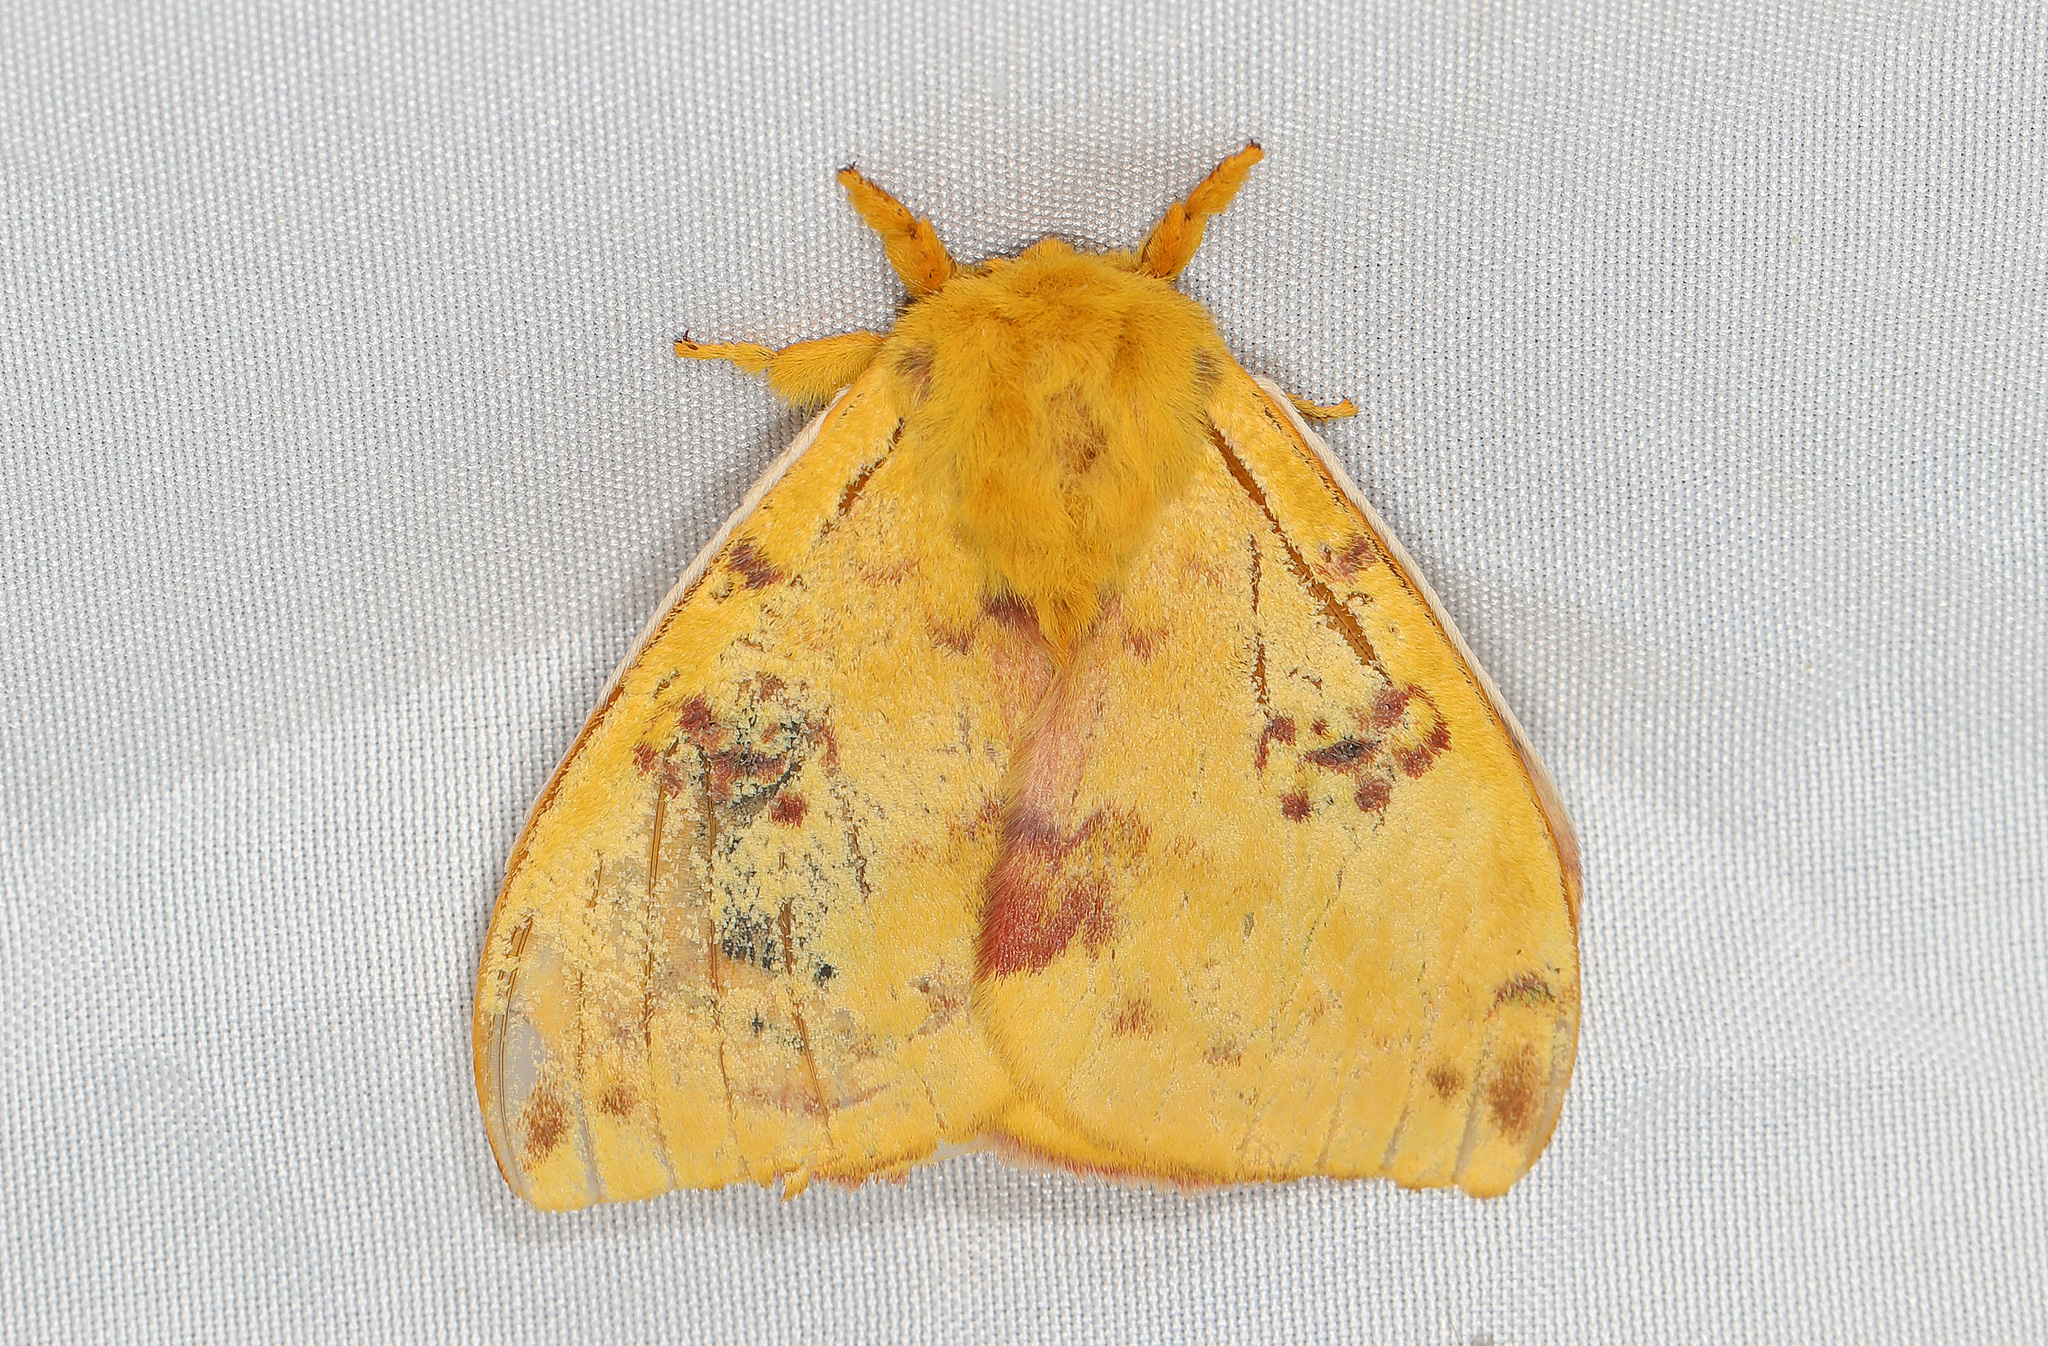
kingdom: Animalia
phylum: Arthropoda
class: Insecta
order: Lepidoptera
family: Saturniidae
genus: Automeris
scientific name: Automeris io
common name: Io moth
